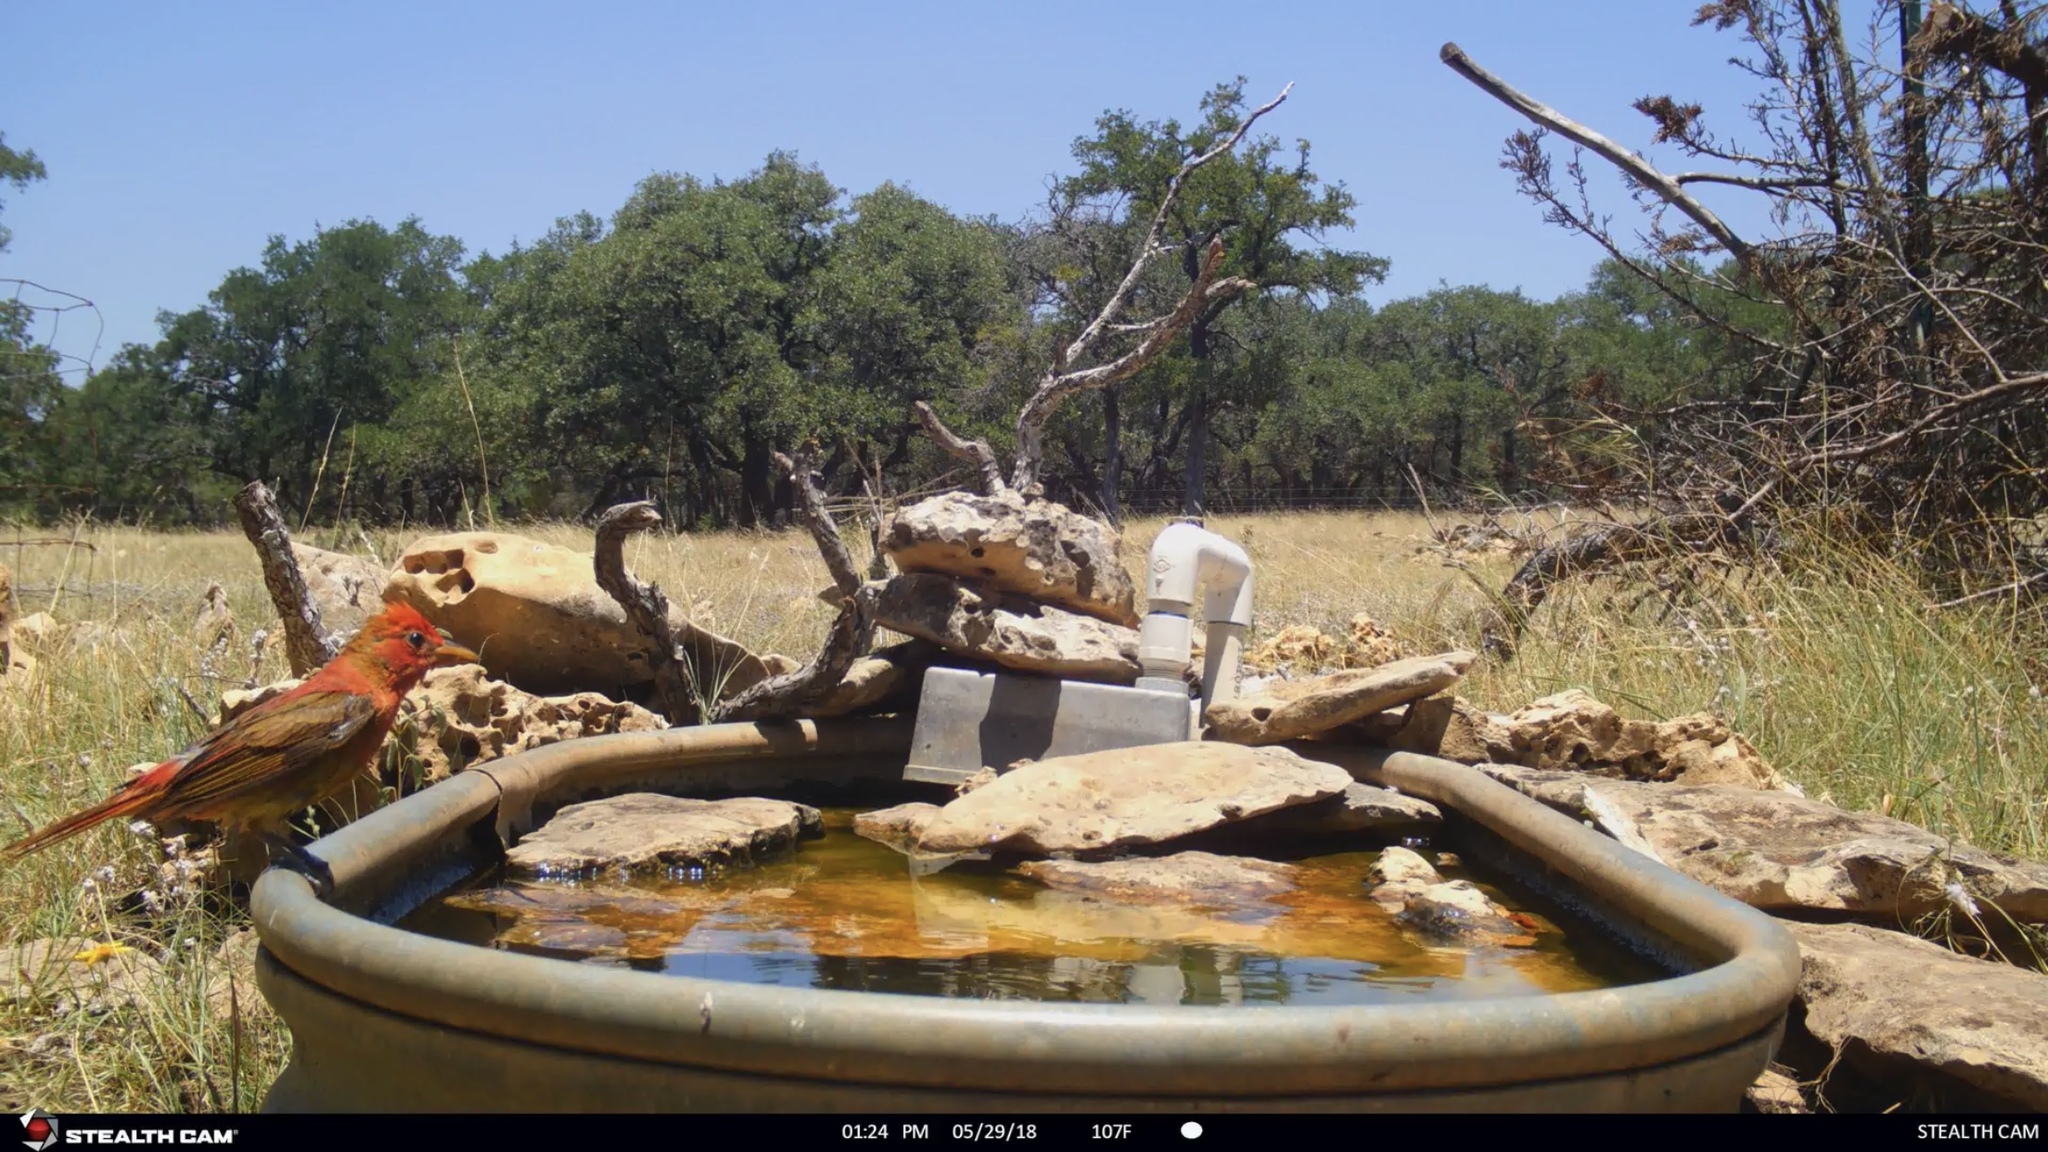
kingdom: Animalia
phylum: Chordata
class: Aves
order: Passeriformes
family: Cardinalidae
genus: Piranga
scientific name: Piranga rubra
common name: Summer tanager
